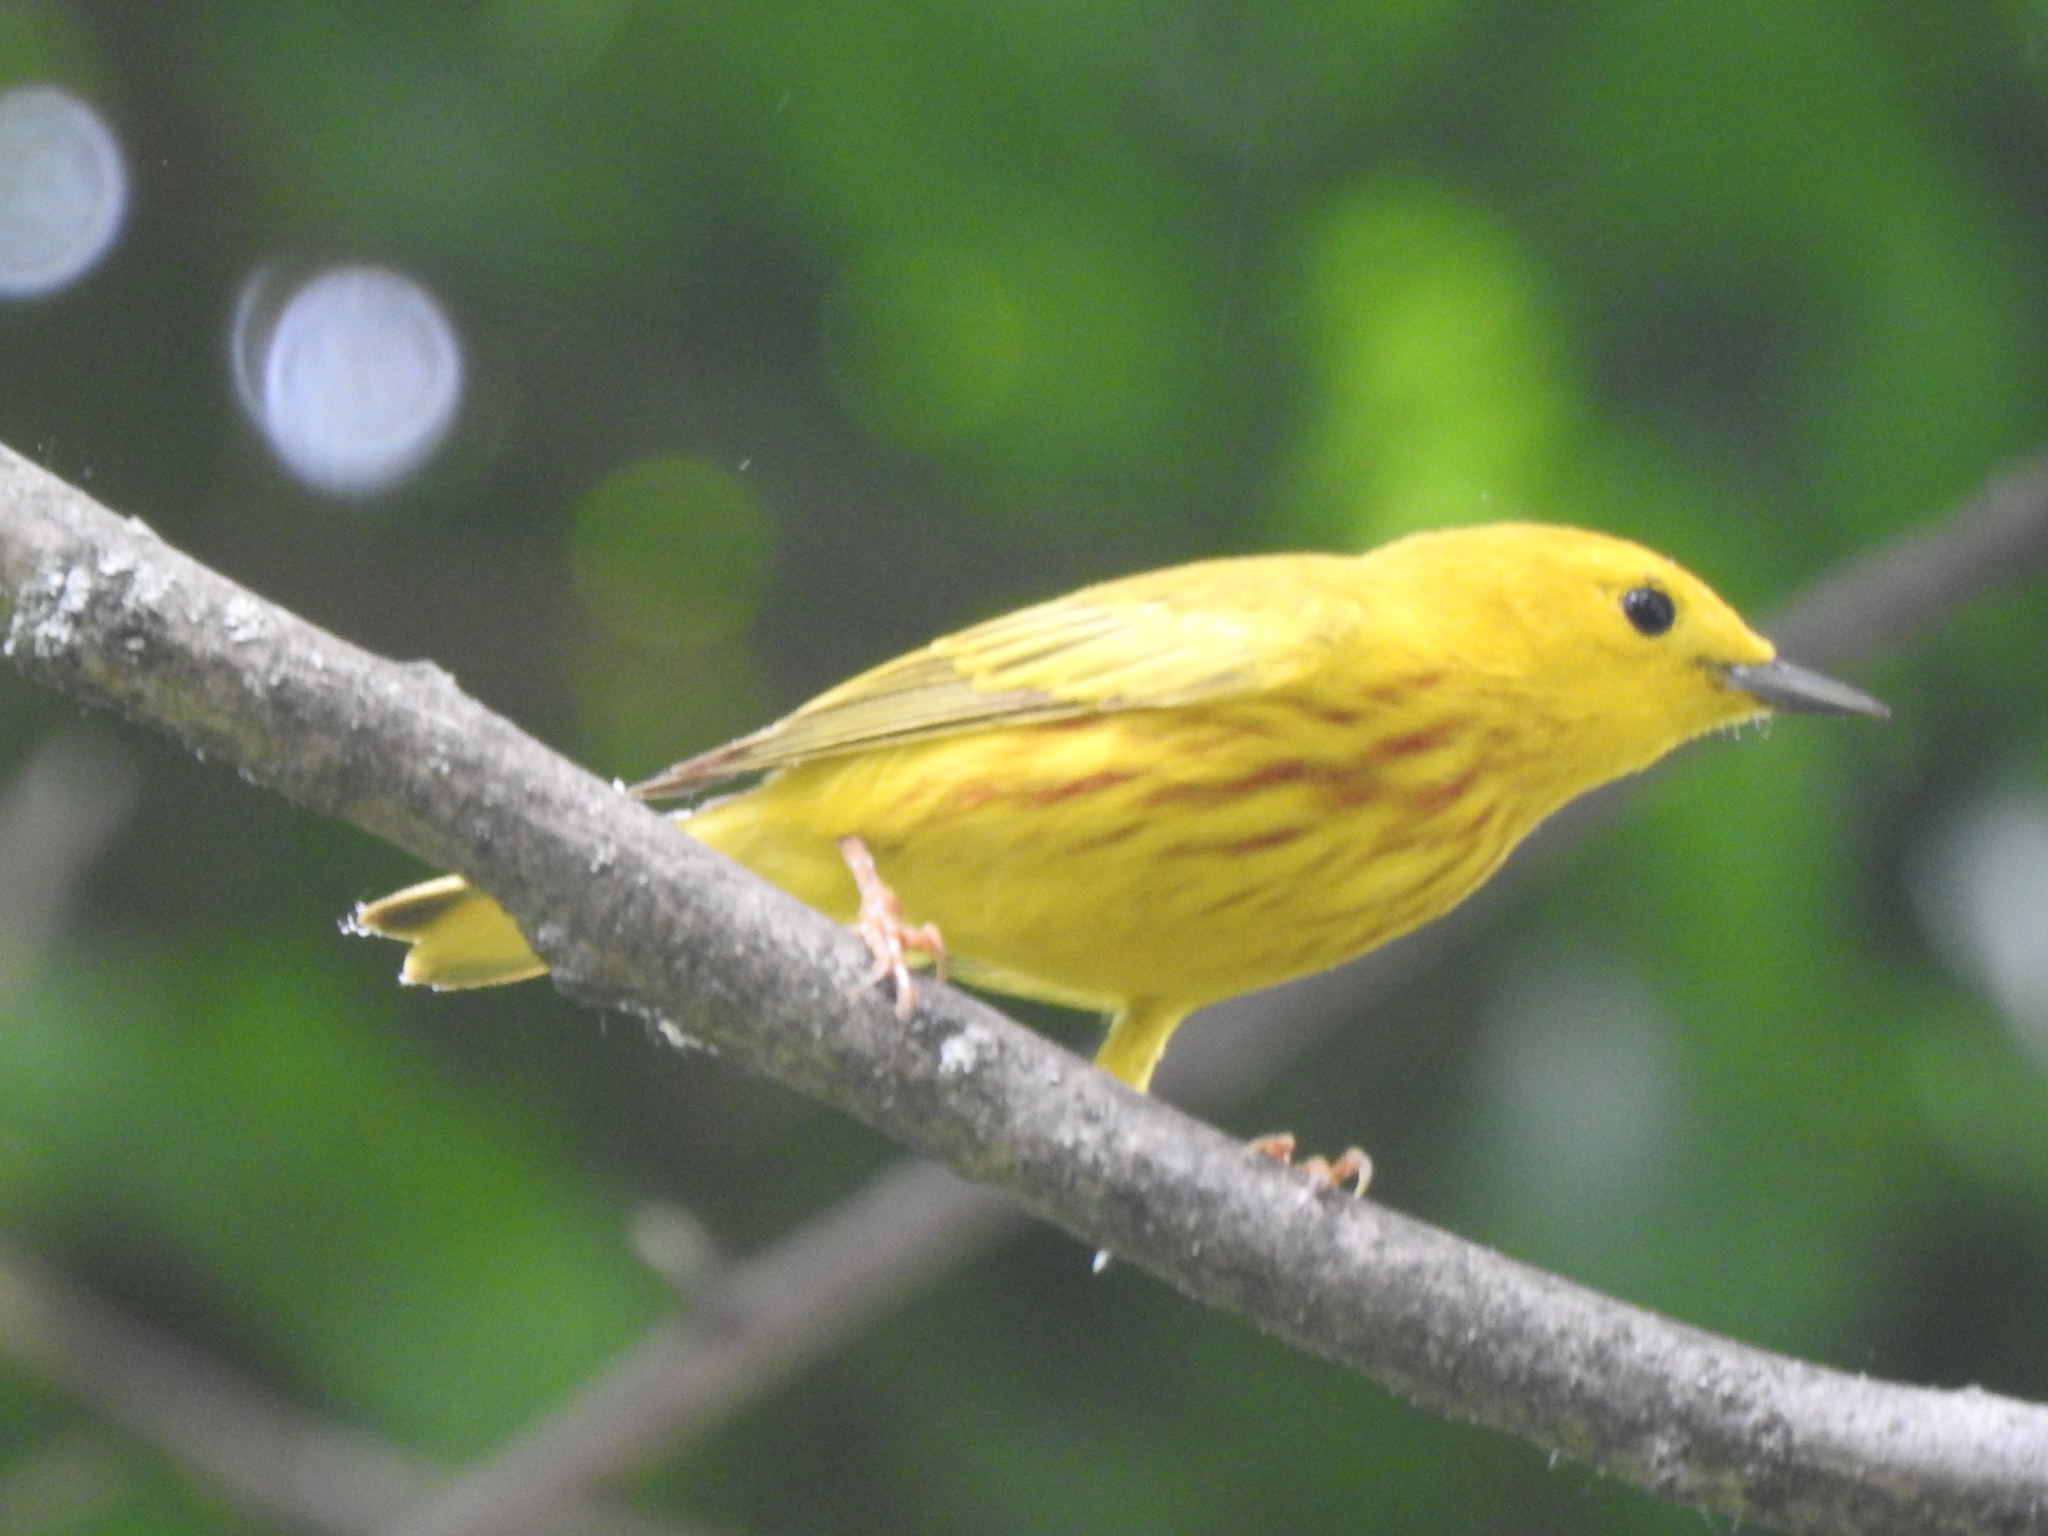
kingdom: Animalia
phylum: Chordata
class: Aves
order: Passeriformes
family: Parulidae
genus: Setophaga
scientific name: Setophaga petechia
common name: Yellow warbler
